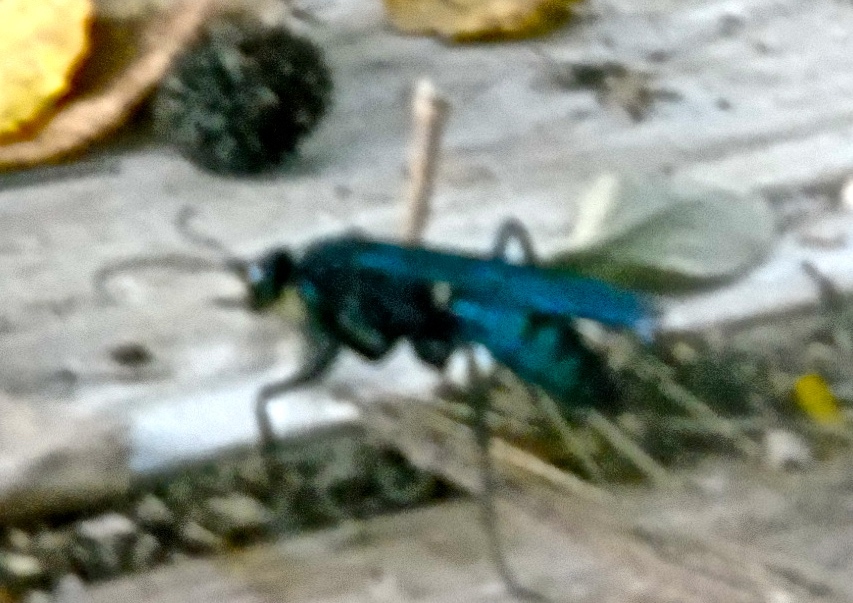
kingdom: Animalia
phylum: Arthropoda
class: Insecta
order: Hymenoptera
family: Pompilidae
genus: Pepsis
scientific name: Pepsis mexicana
